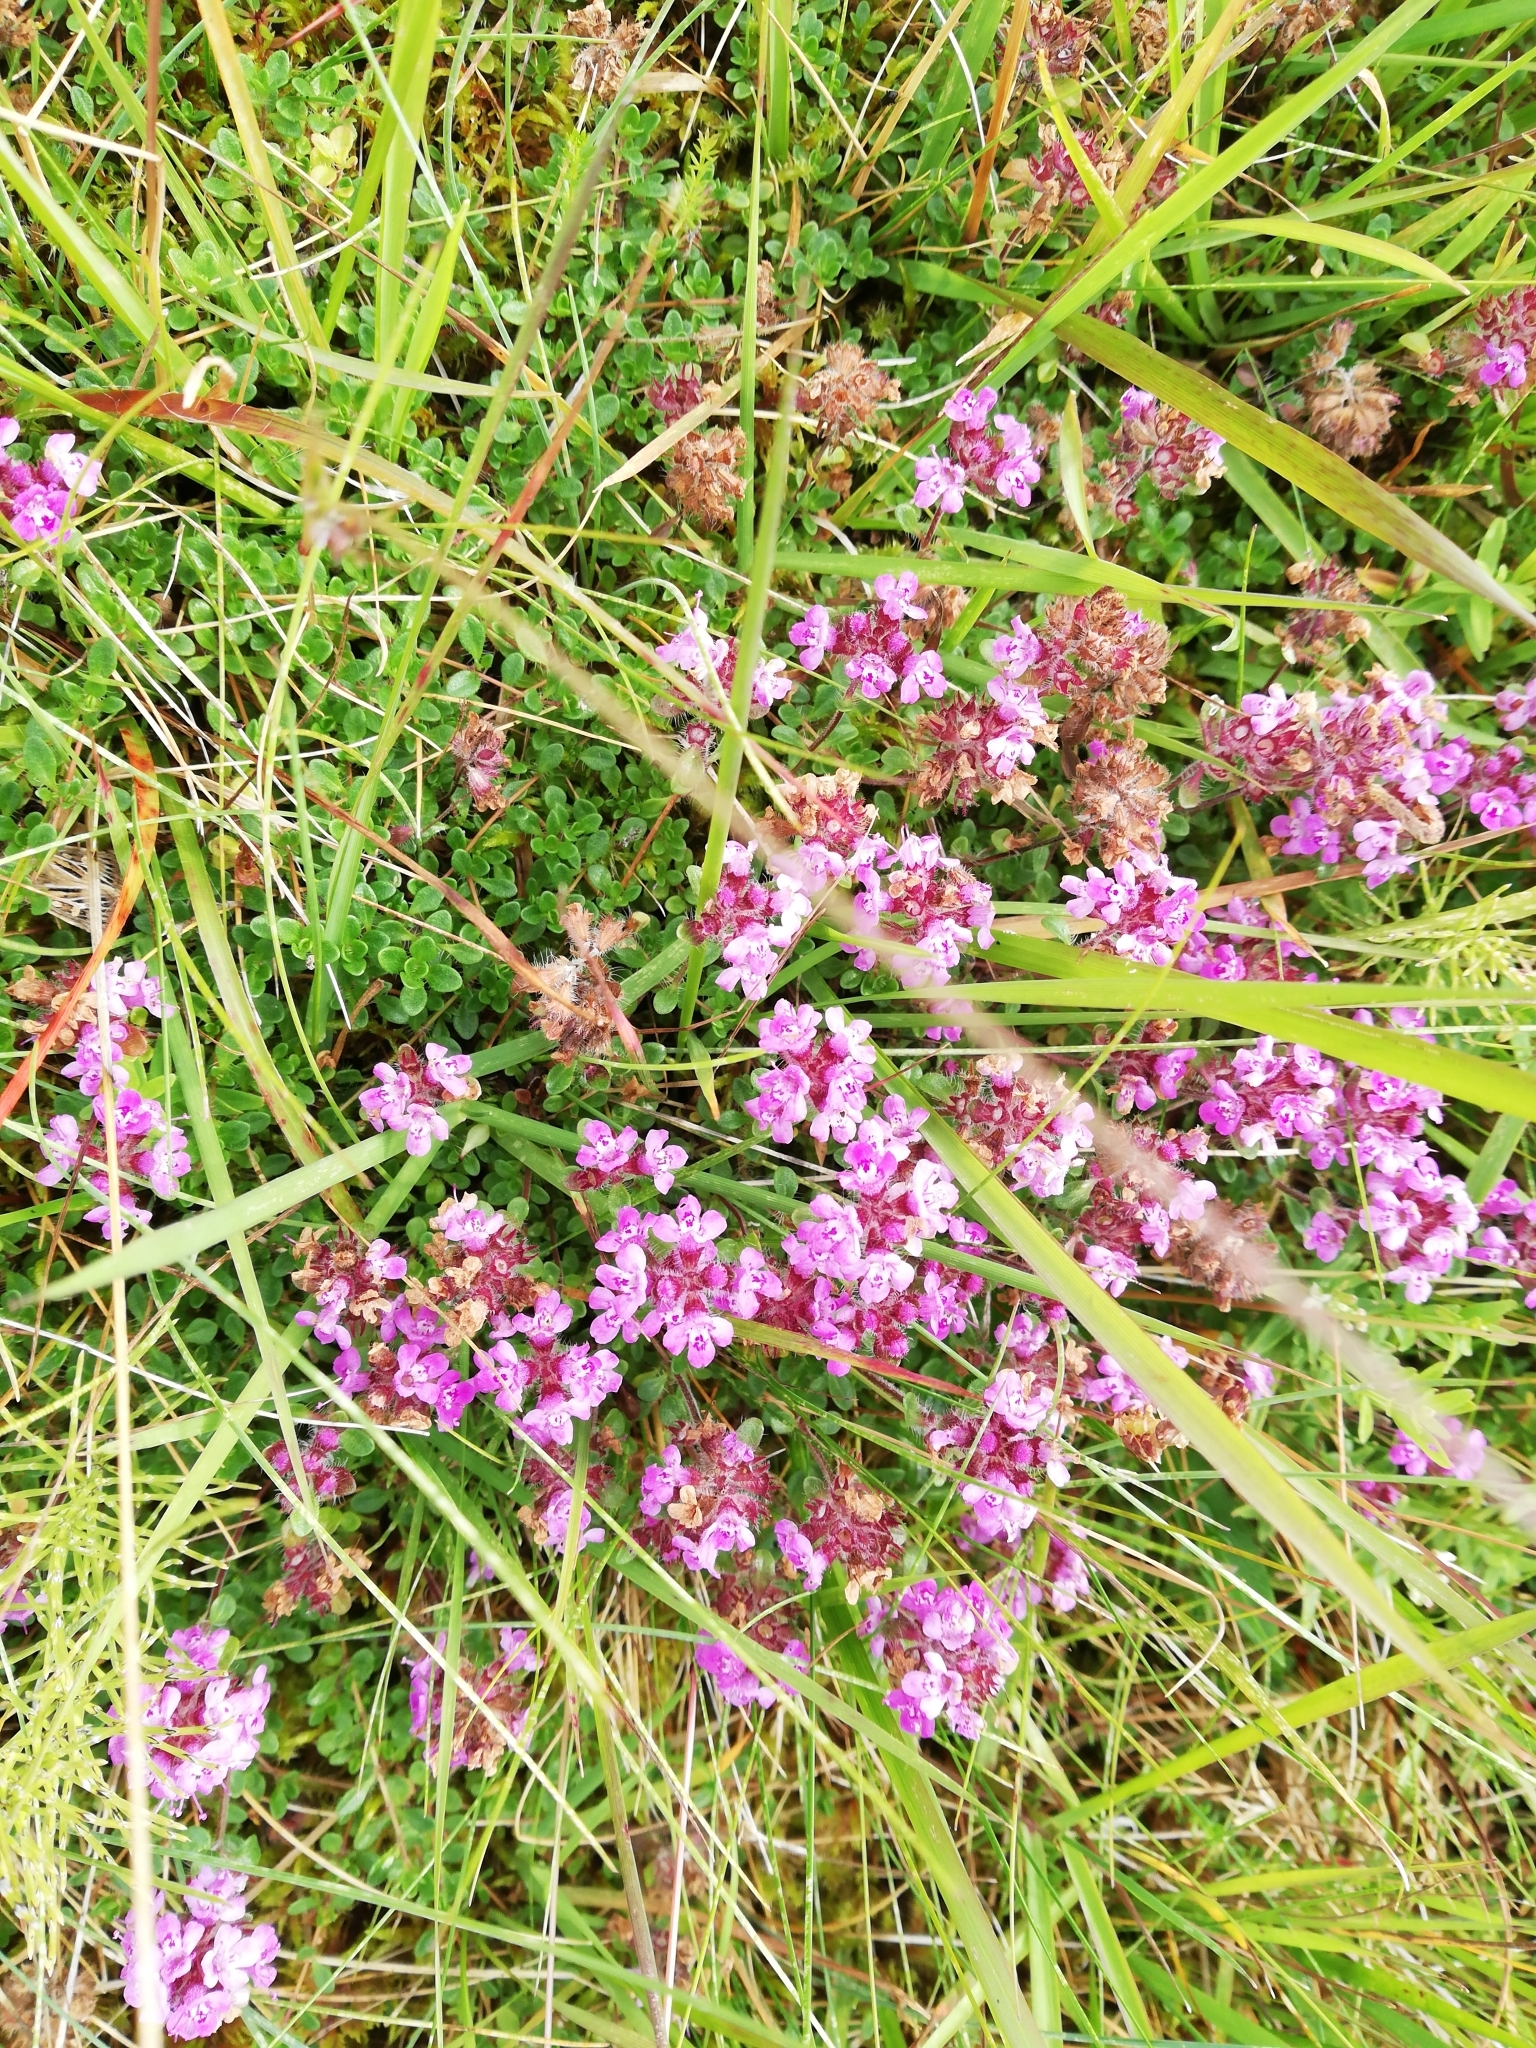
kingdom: Plantae
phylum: Tracheophyta
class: Magnoliopsida
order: Lamiales
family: Lamiaceae
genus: Thymus
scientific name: Thymus praecox
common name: Wild thyme
